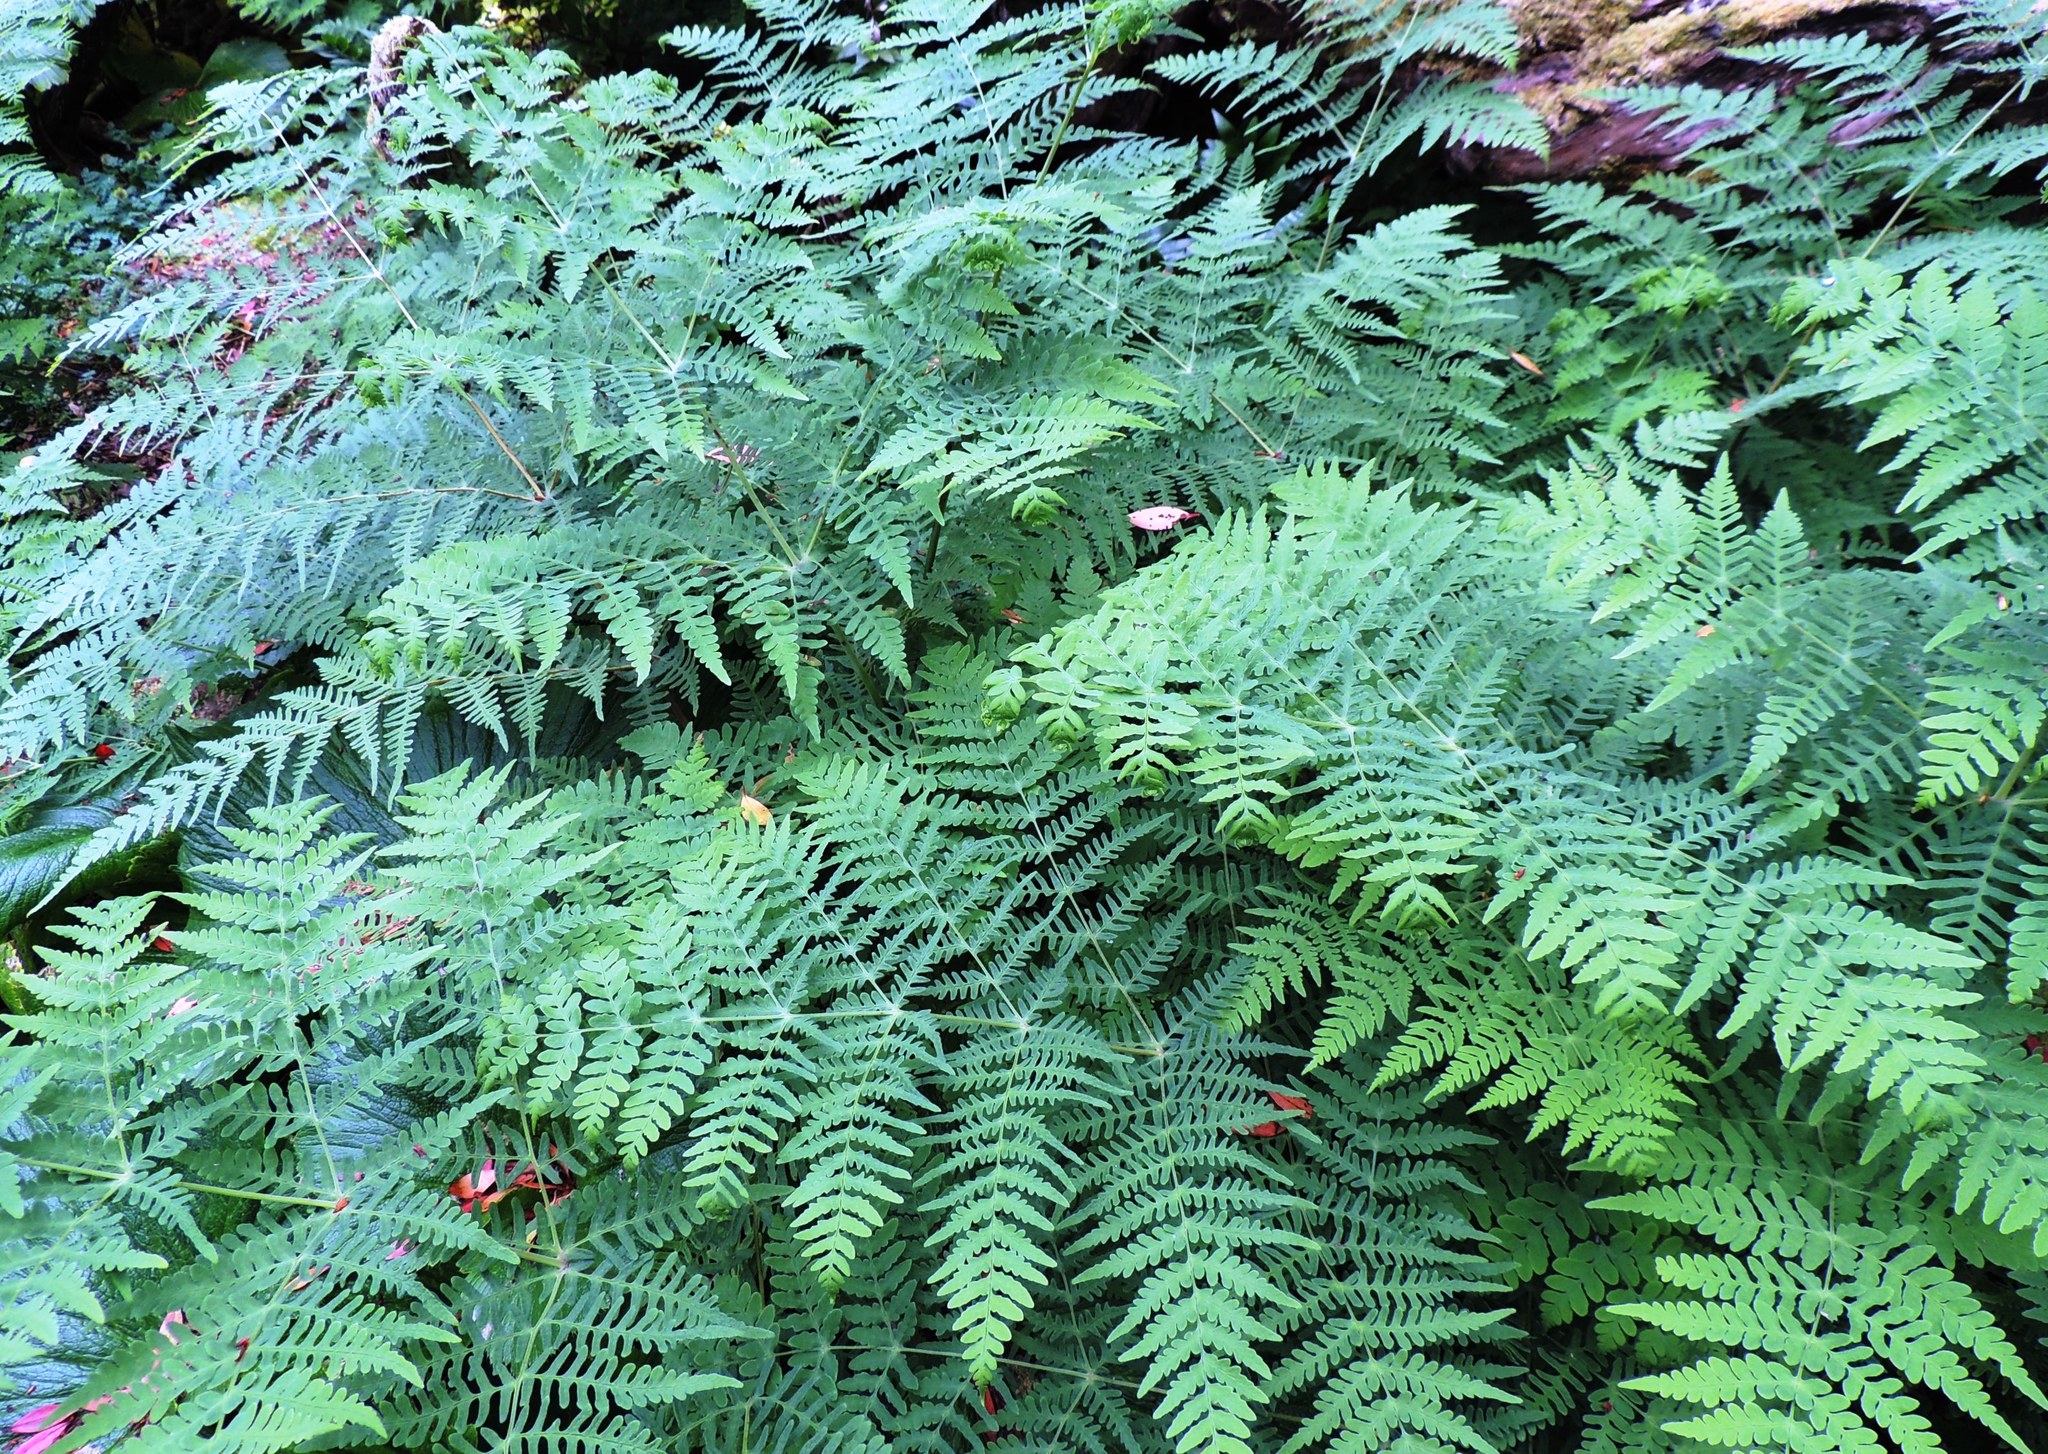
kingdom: Plantae
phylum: Tracheophyta
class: Polypodiopsida
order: Polypodiales
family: Dennstaedtiaceae
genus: Histiopteris
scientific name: Histiopteris incisa
